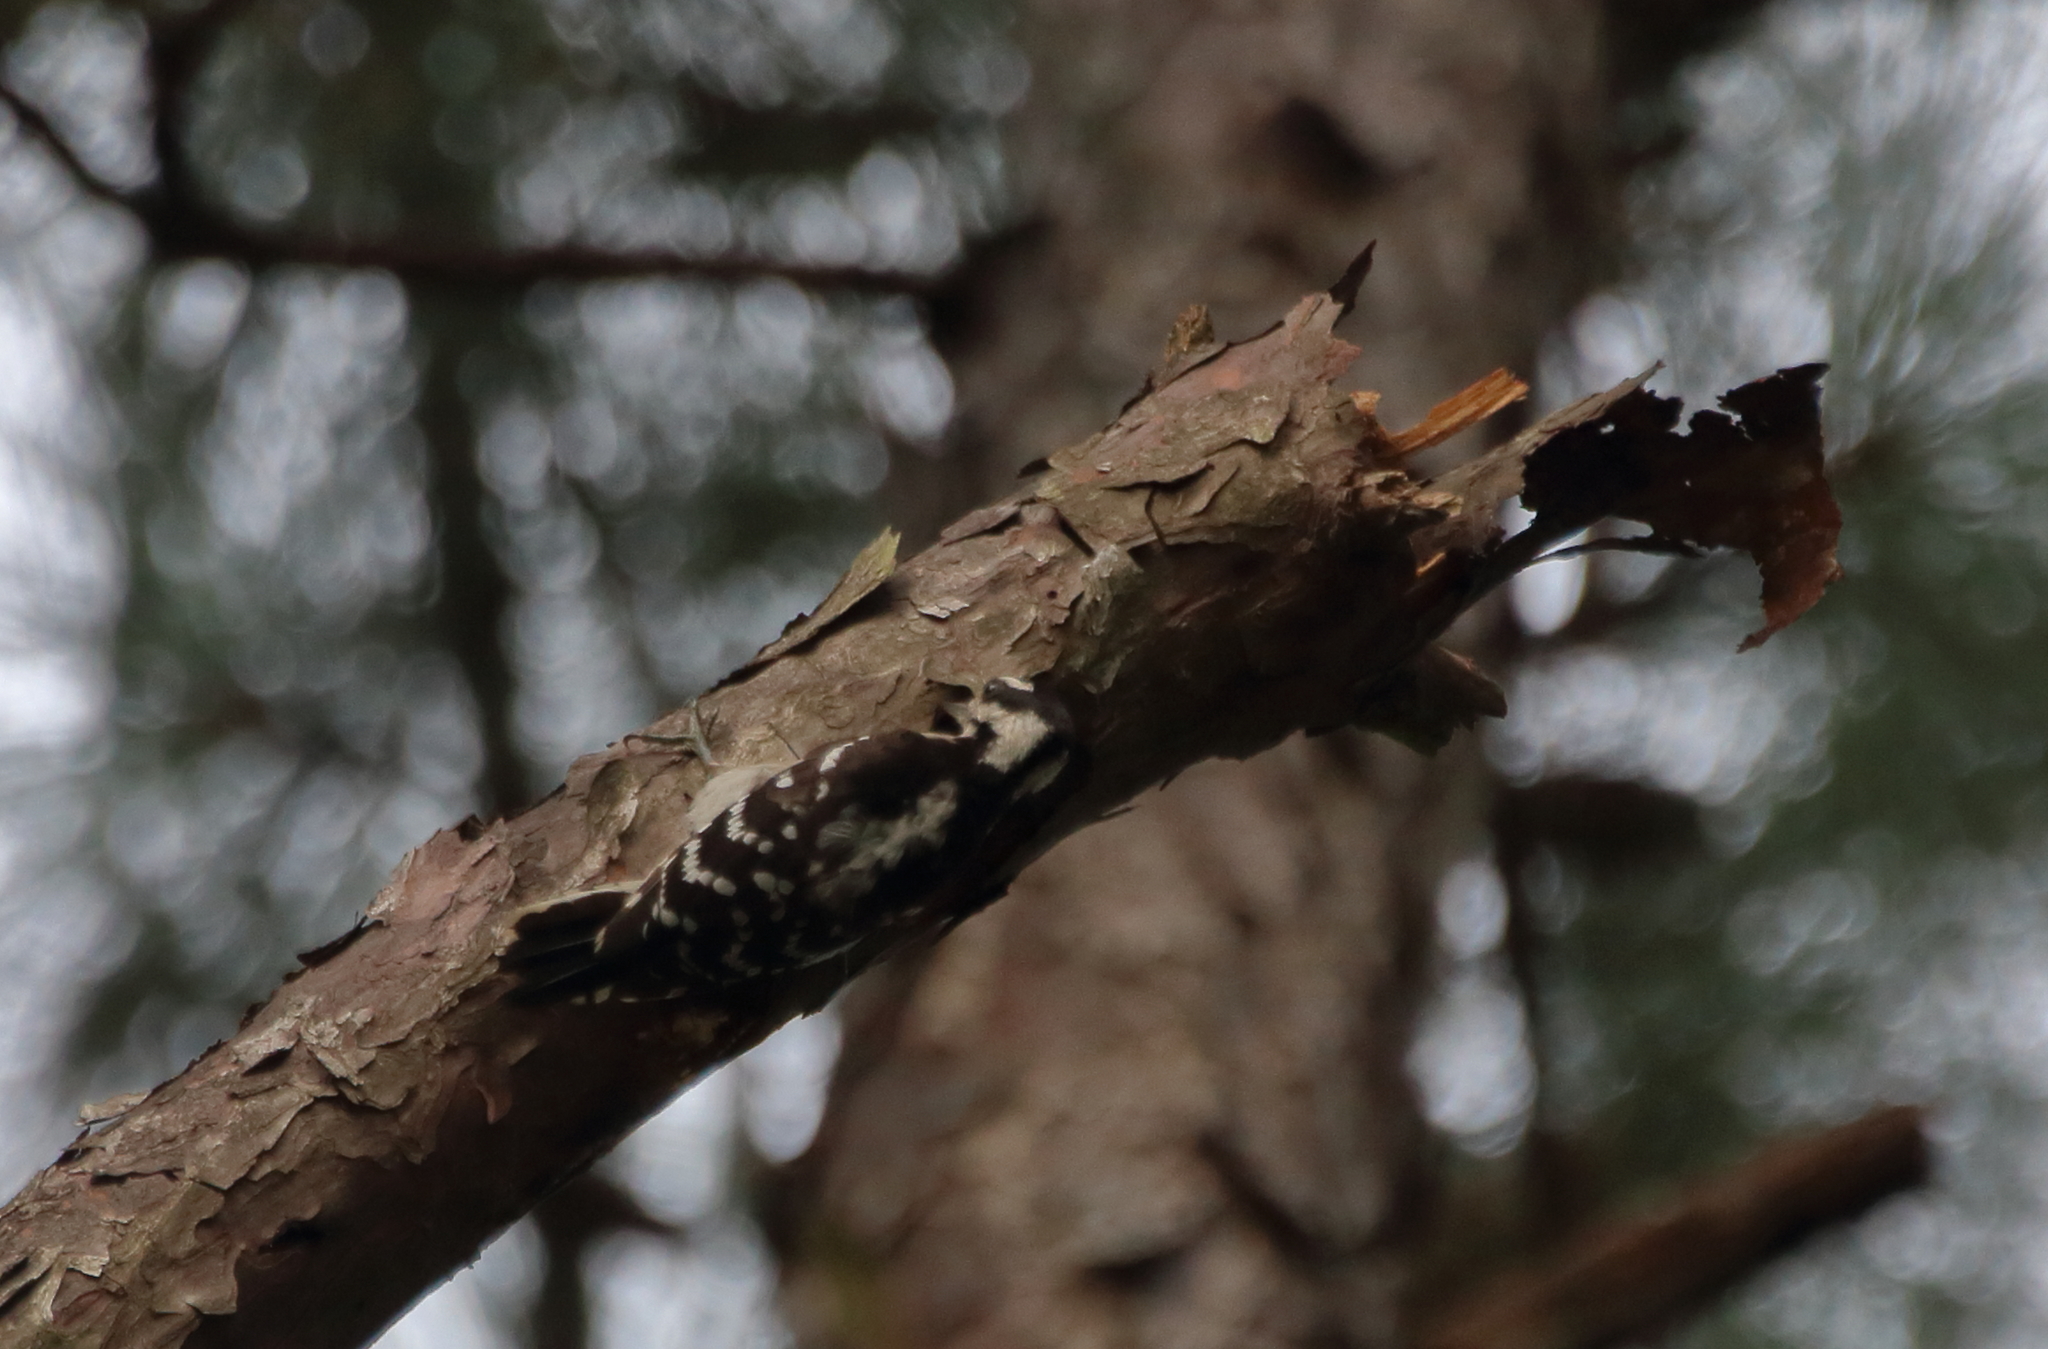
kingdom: Animalia
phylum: Chordata
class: Aves
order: Piciformes
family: Picidae
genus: Dryobates
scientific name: Dryobates pubescens
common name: Downy woodpecker
